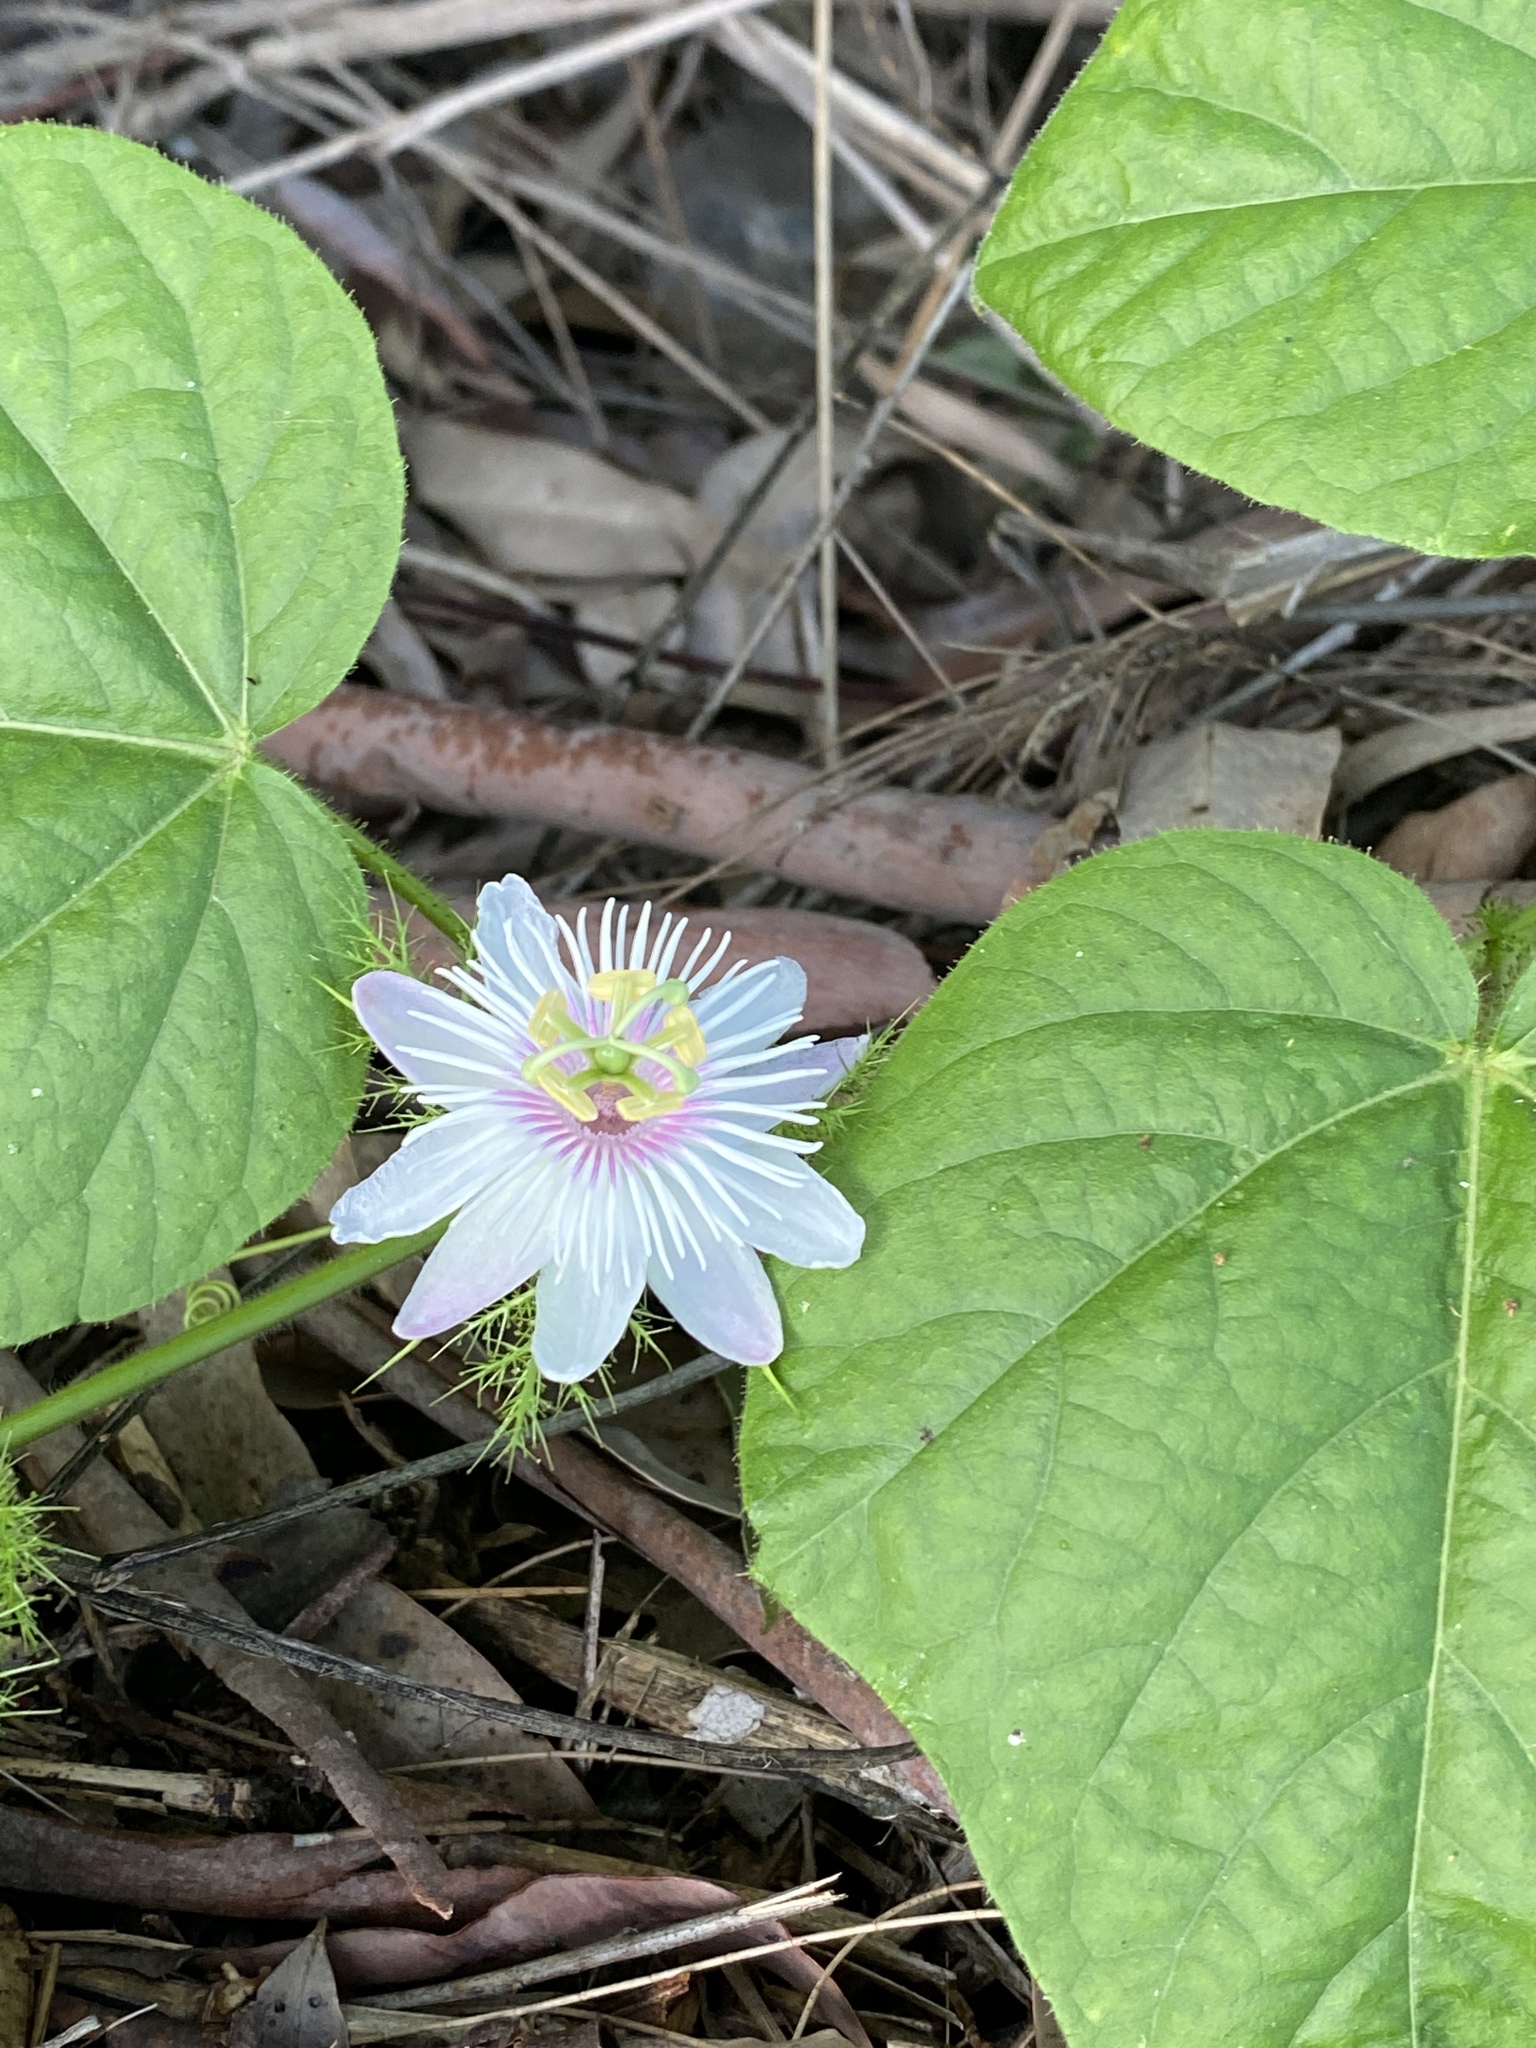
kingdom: Plantae
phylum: Tracheophyta
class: Magnoliopsida
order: Malpighiales
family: Passifloraceae
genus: Passiflora
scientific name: Passiflora foetida
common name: Fetid passionflower
